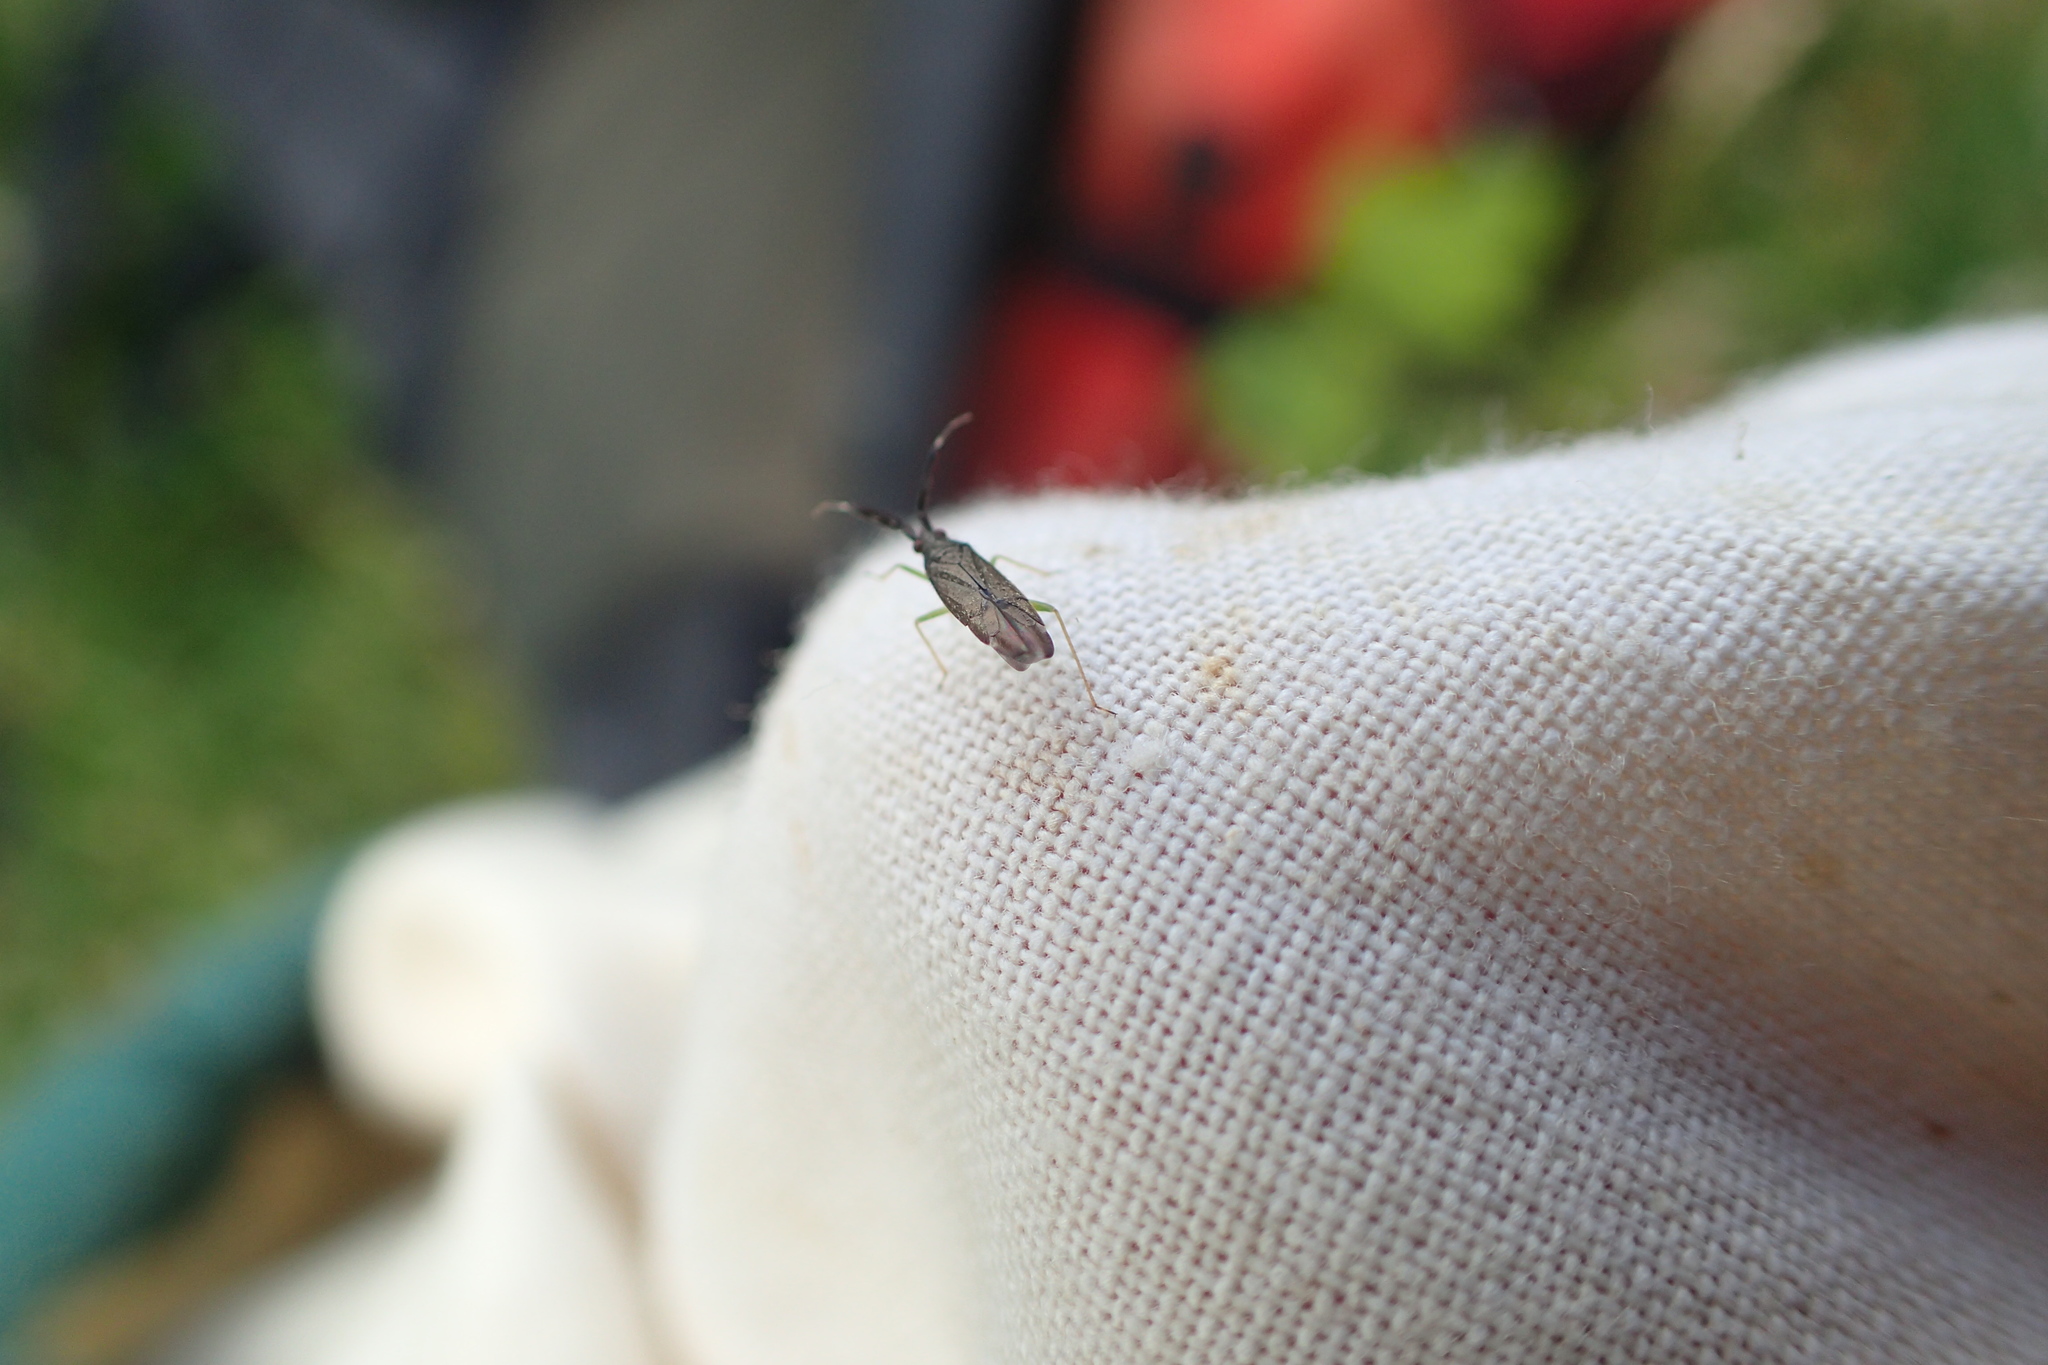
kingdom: Animalia
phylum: Arthropoda
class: Insecta
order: Hemiptera
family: Miridae
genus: Heterotoma
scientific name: Heterotoma planicornis
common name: Plant bug
